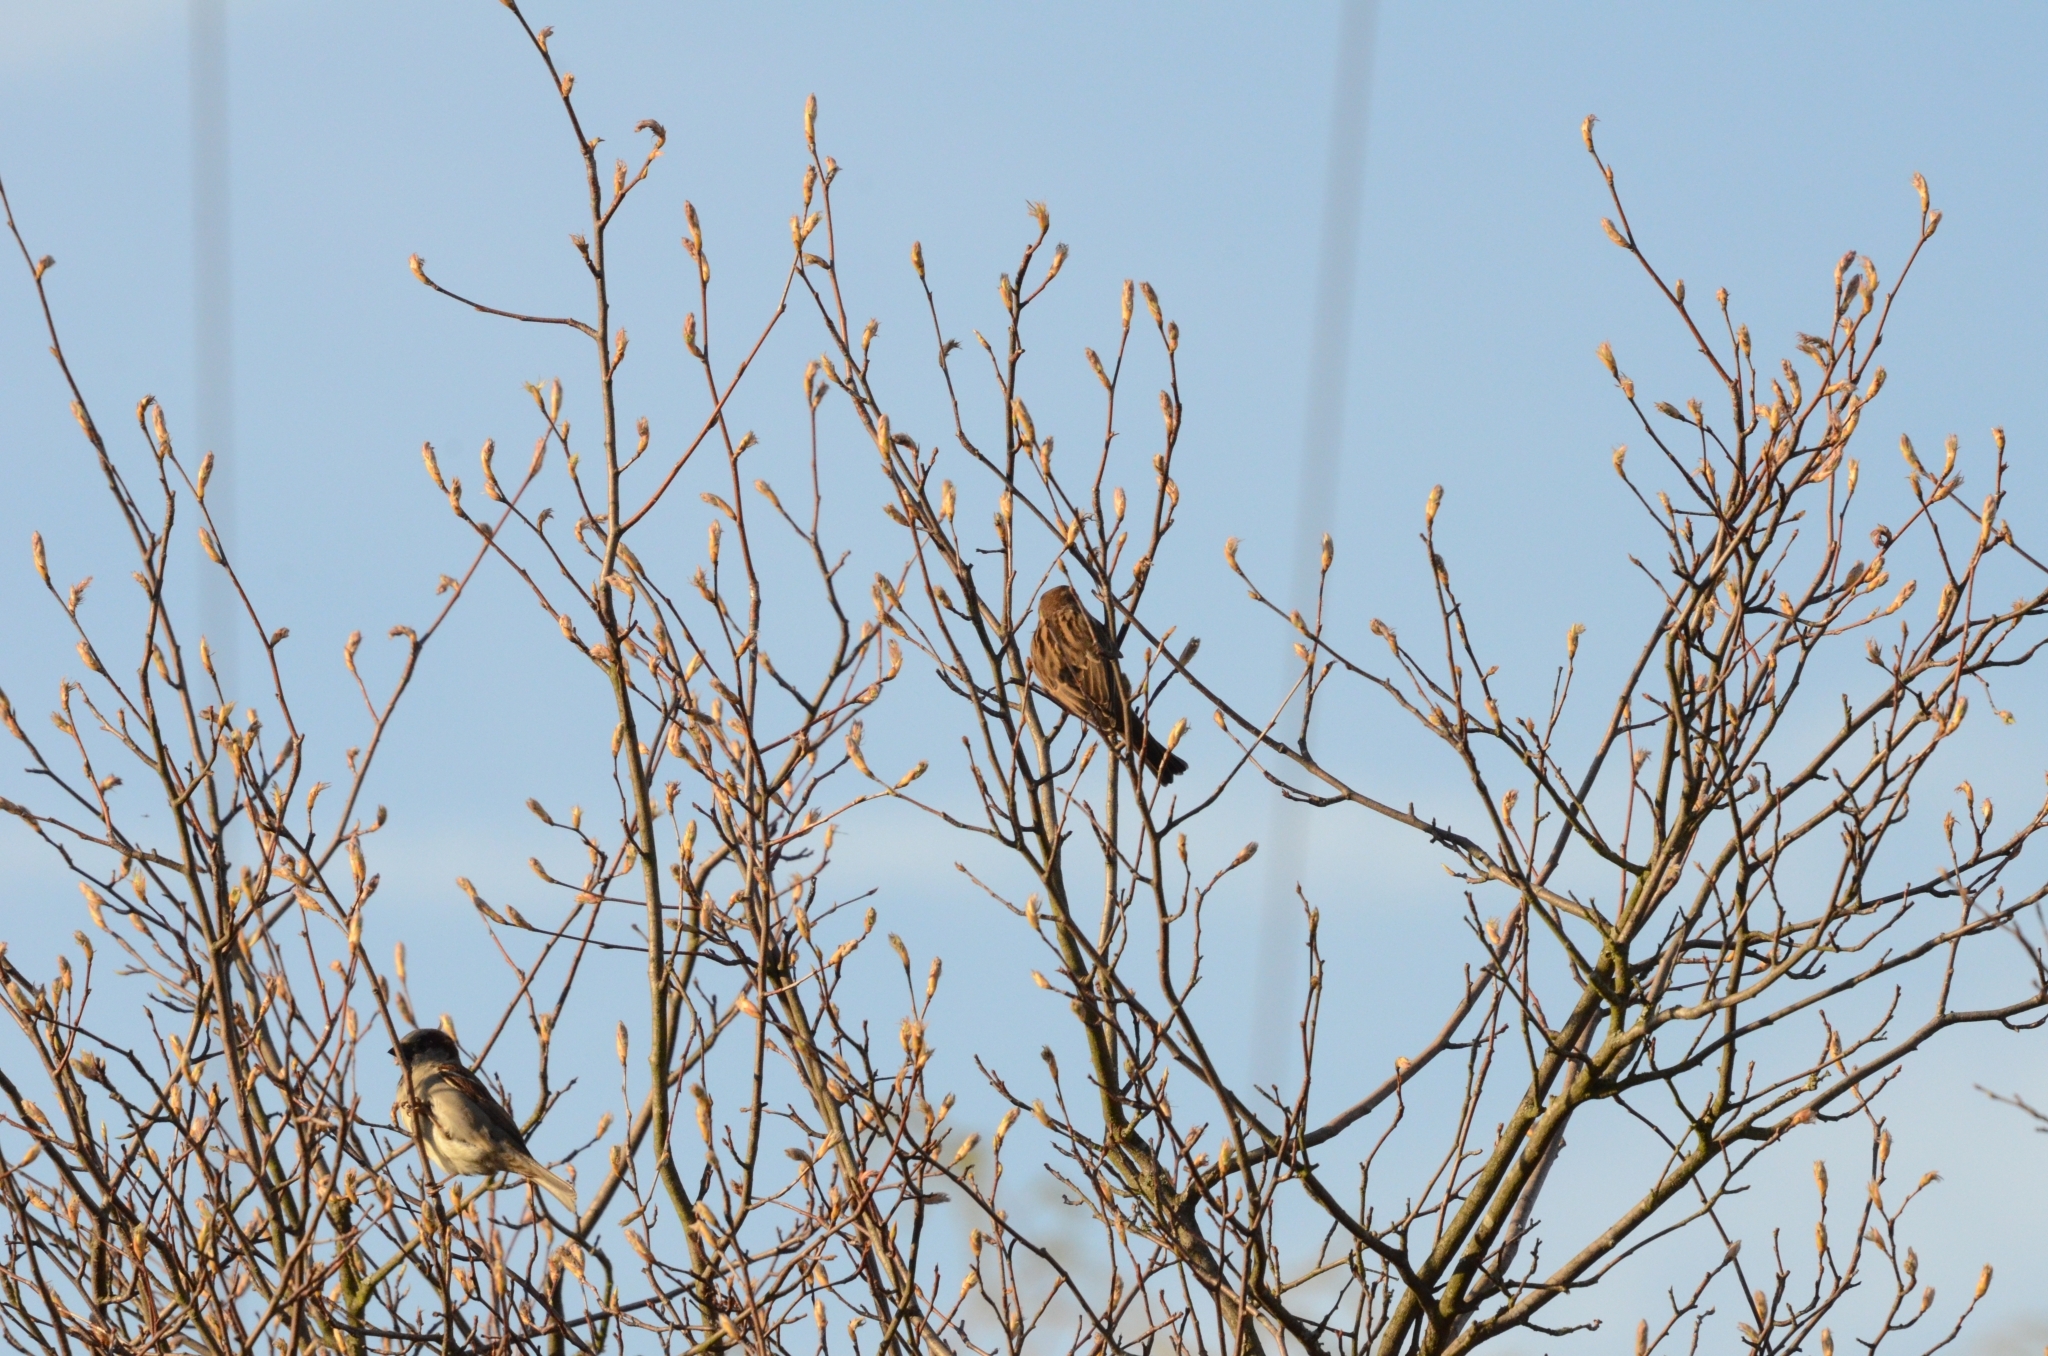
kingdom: Animalia
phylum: Chordata
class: Aves
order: Passeriformes
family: Passeridae
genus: Passer
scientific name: Passer domesticus
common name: House sparrow
